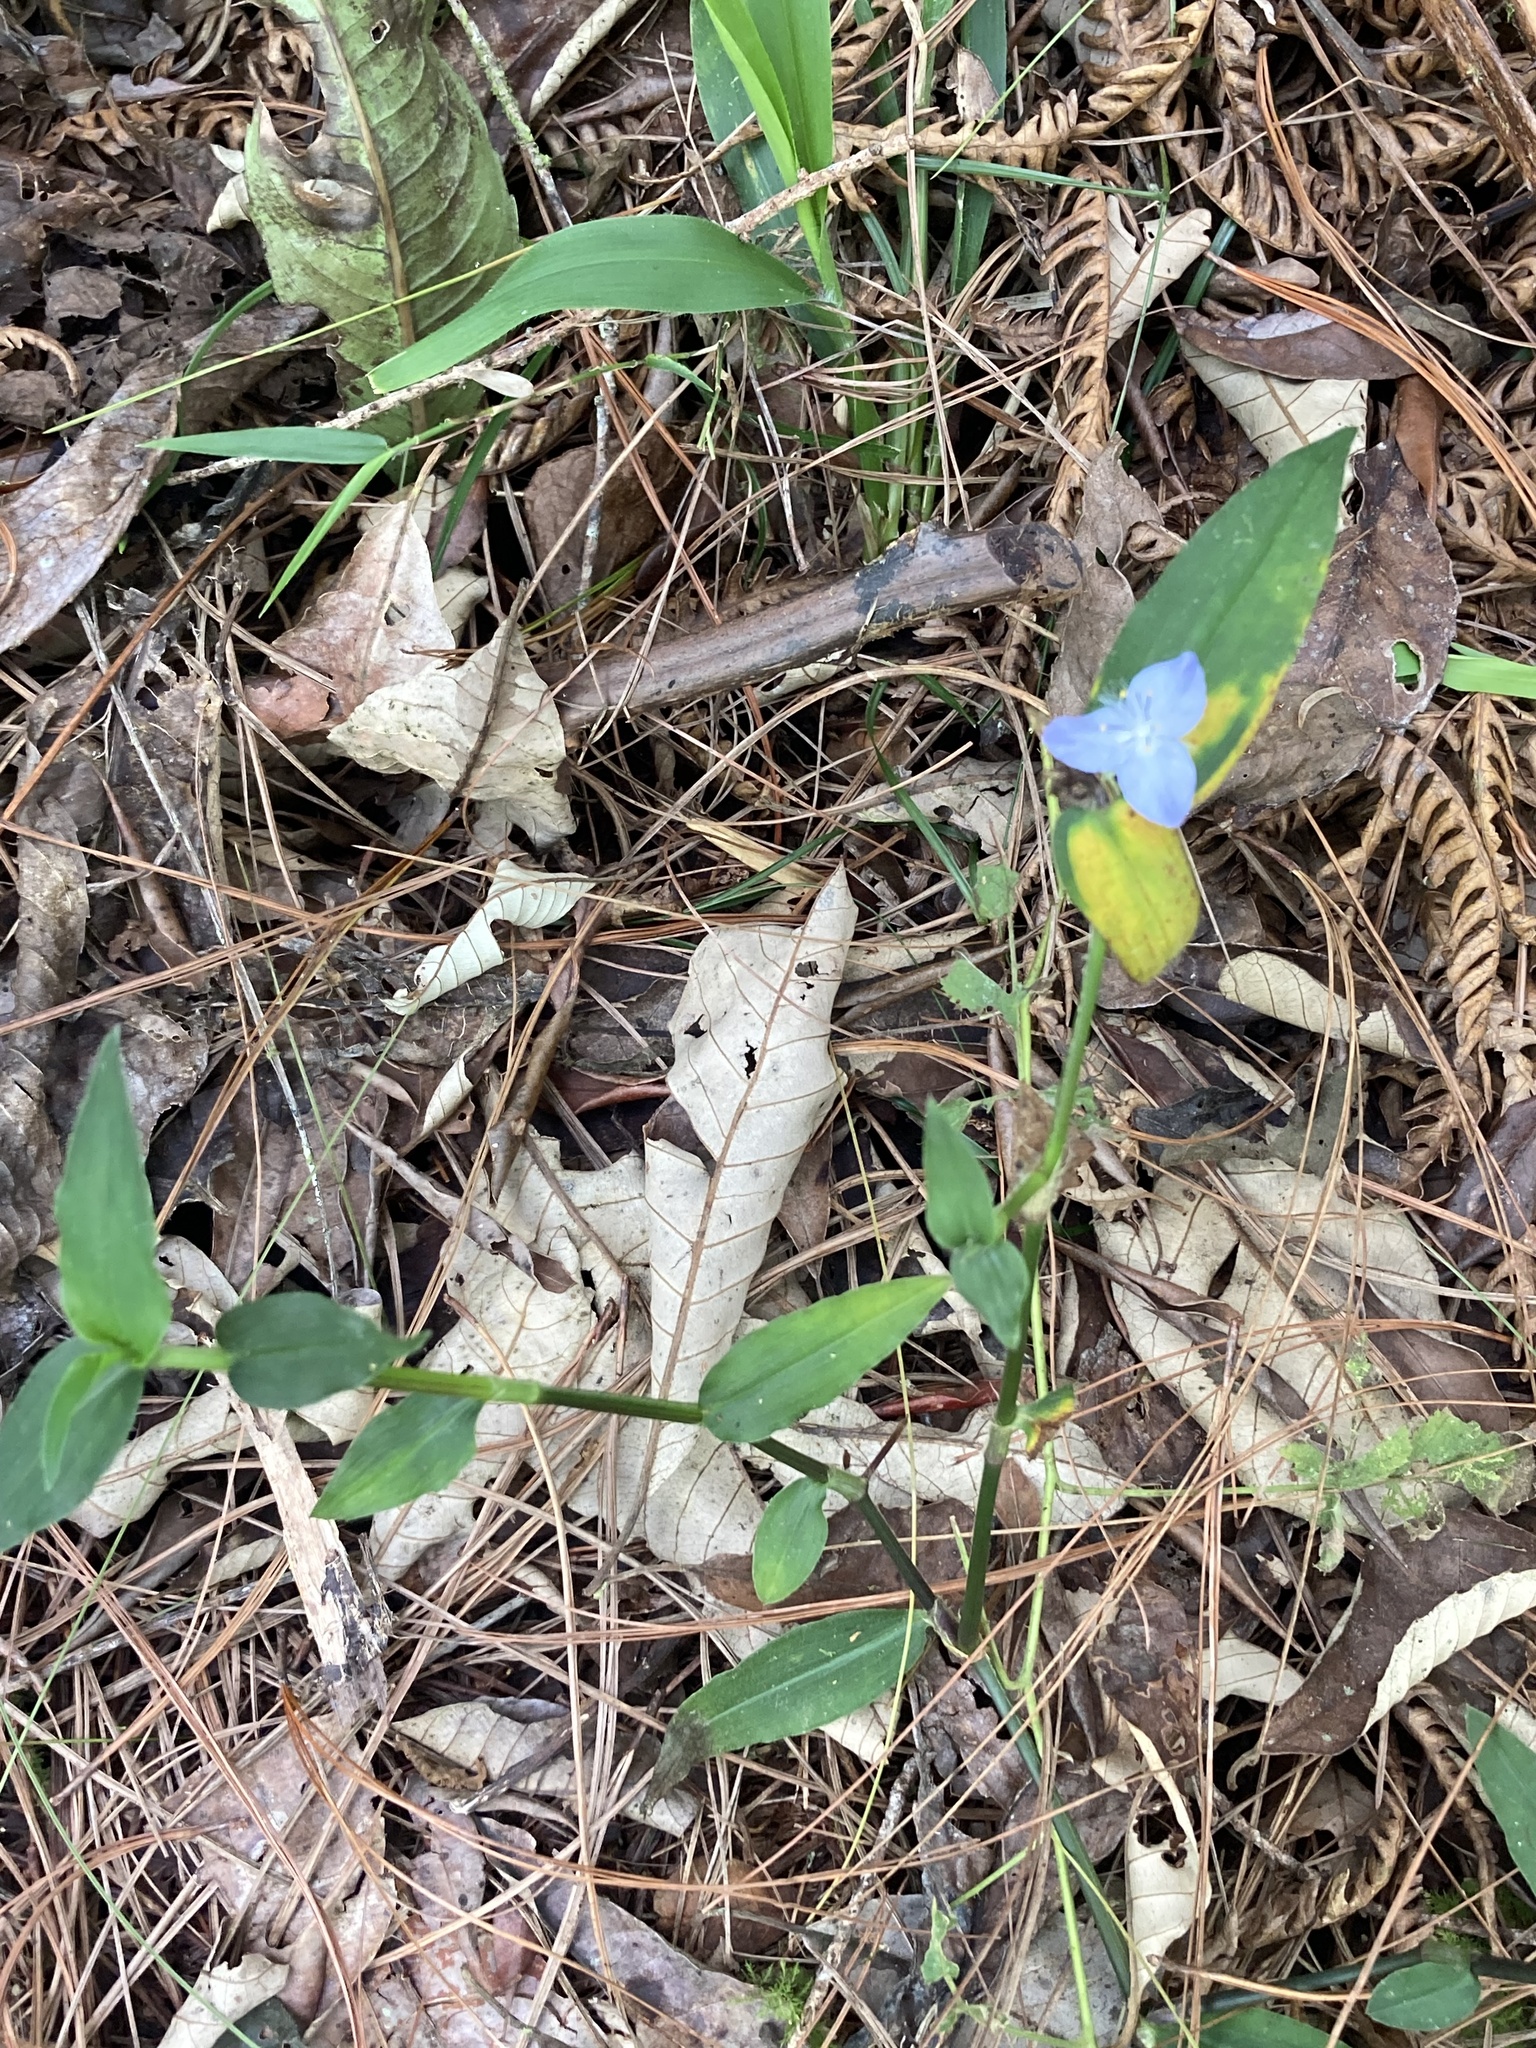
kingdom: Plantae
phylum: Tracheophyta
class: Liliopsida
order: Commelinales
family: Commelinaceae
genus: Elasis
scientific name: Elasis guatemalensis
